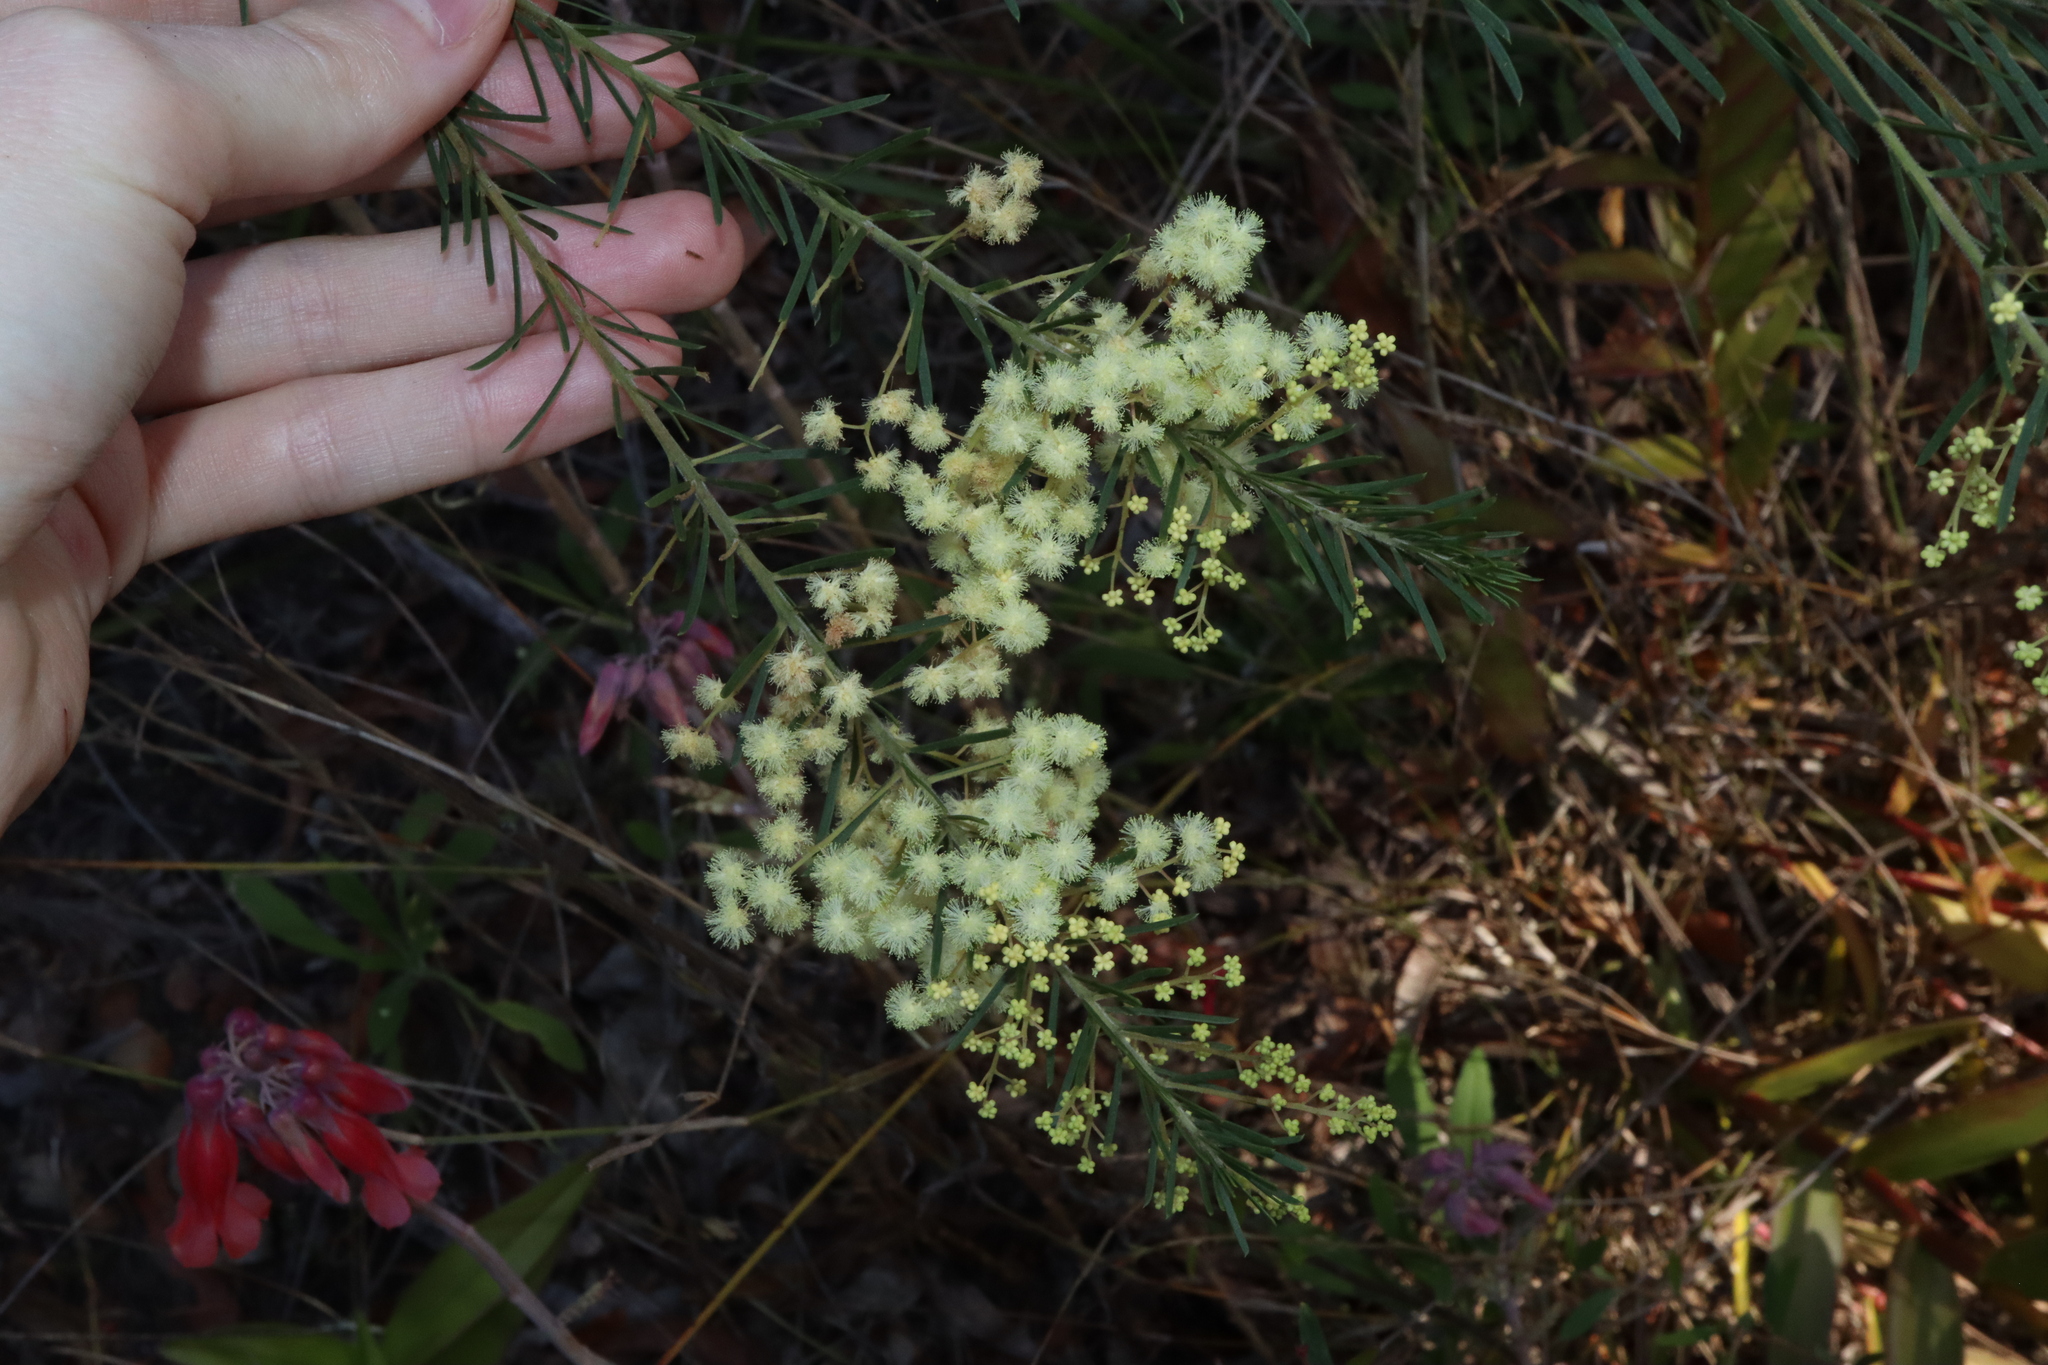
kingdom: Plantae
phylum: Tracheophyta
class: Magnoliopsida
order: Fabales
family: Fabaceae
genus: Acacia
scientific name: Acacia linifolia
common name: White wattle
